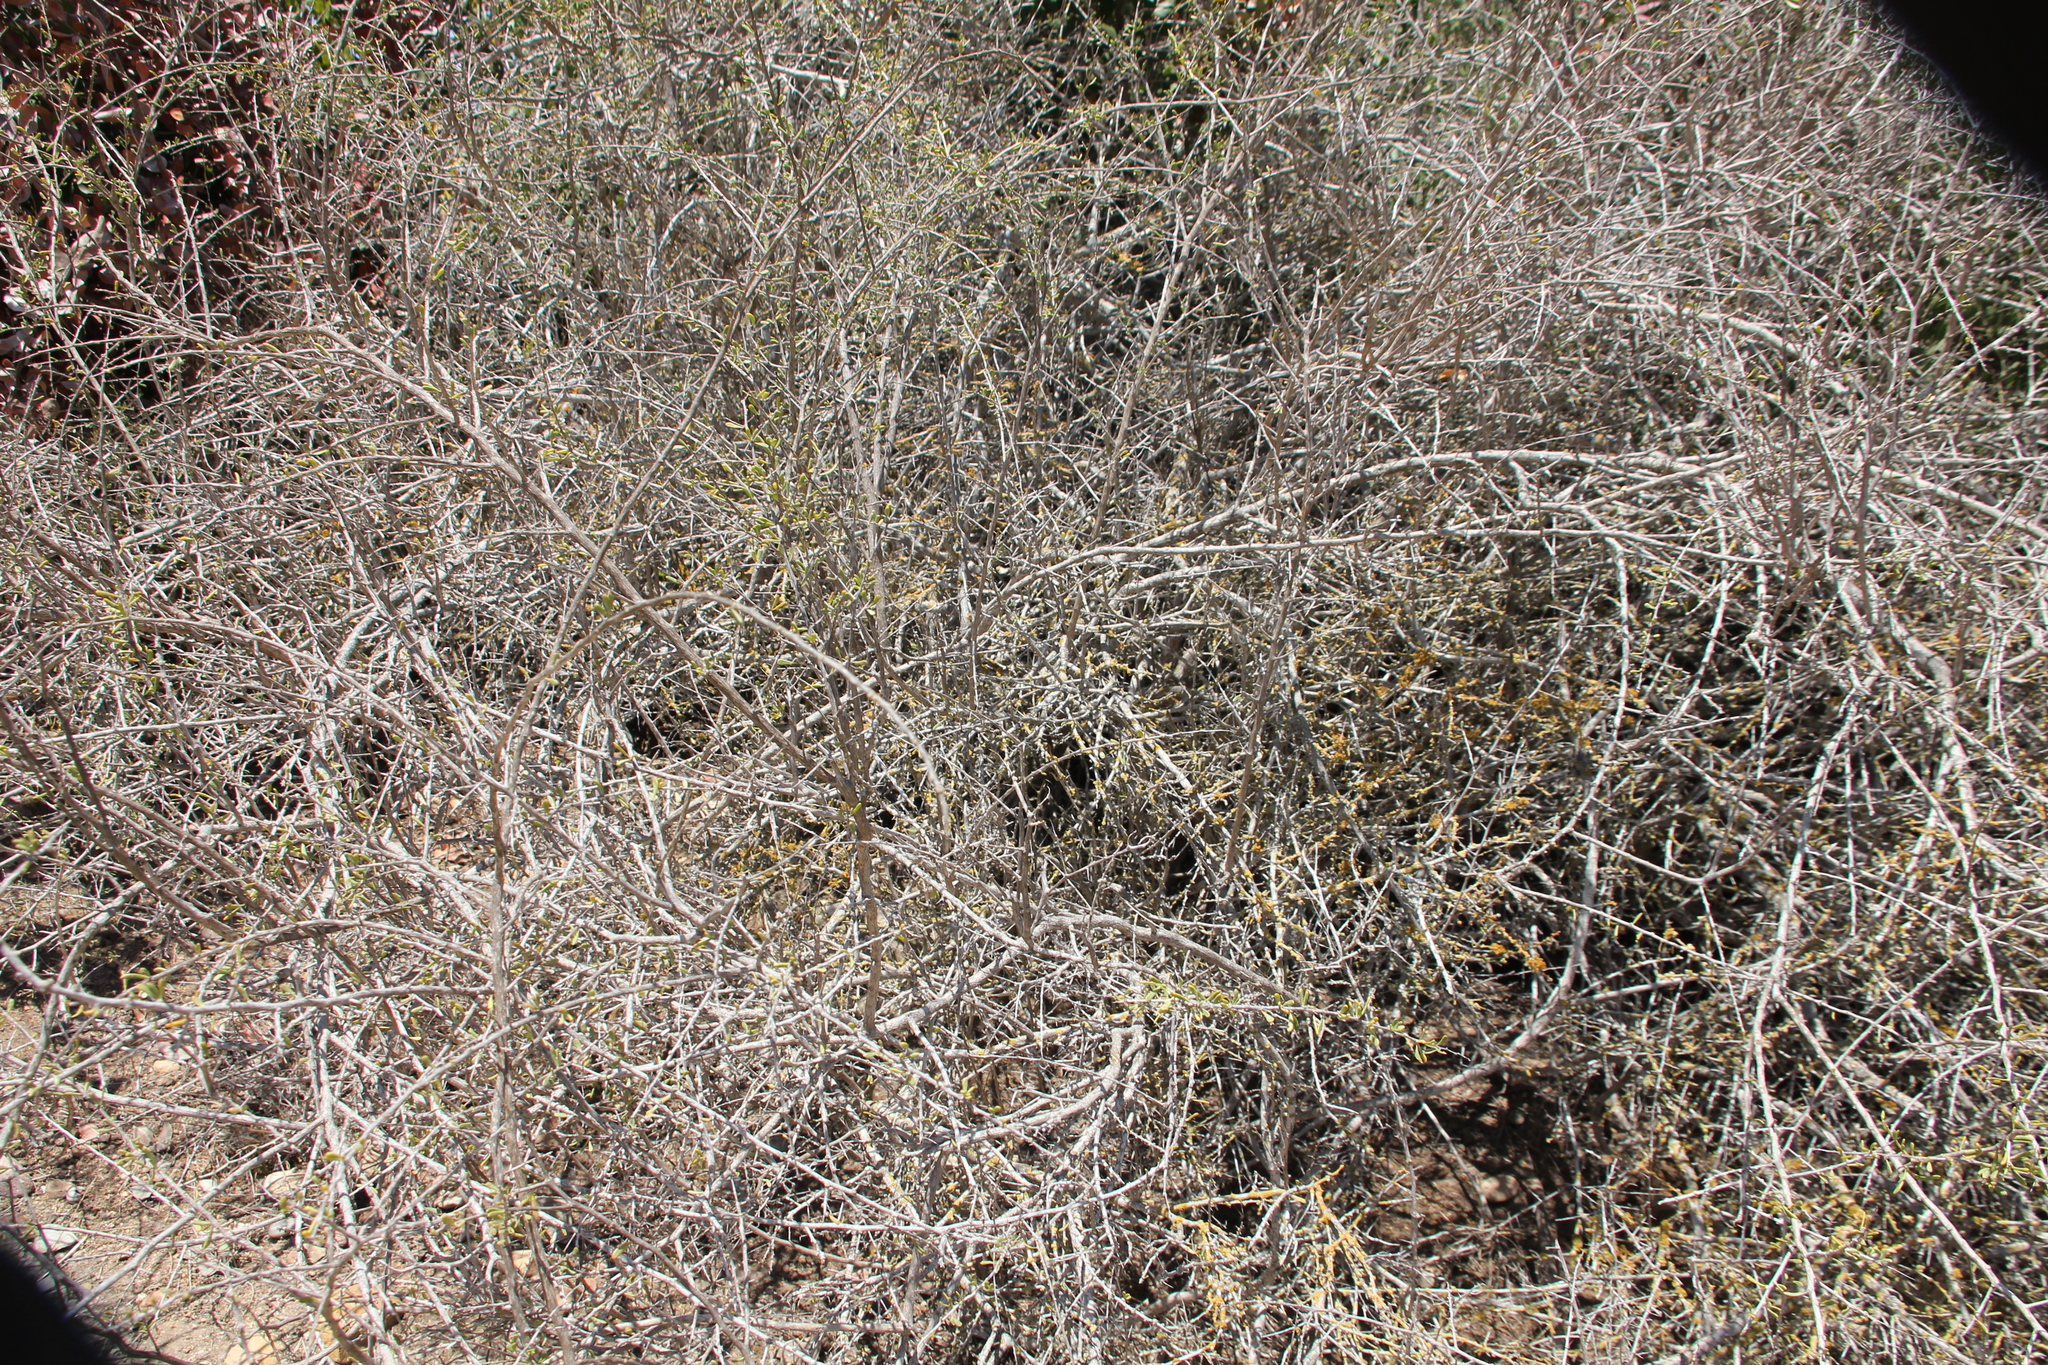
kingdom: Plantae
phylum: Tracheophyta
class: Magnoliopsida
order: Solanales
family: Solanaceae
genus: Lycium
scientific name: Lycium californicum
